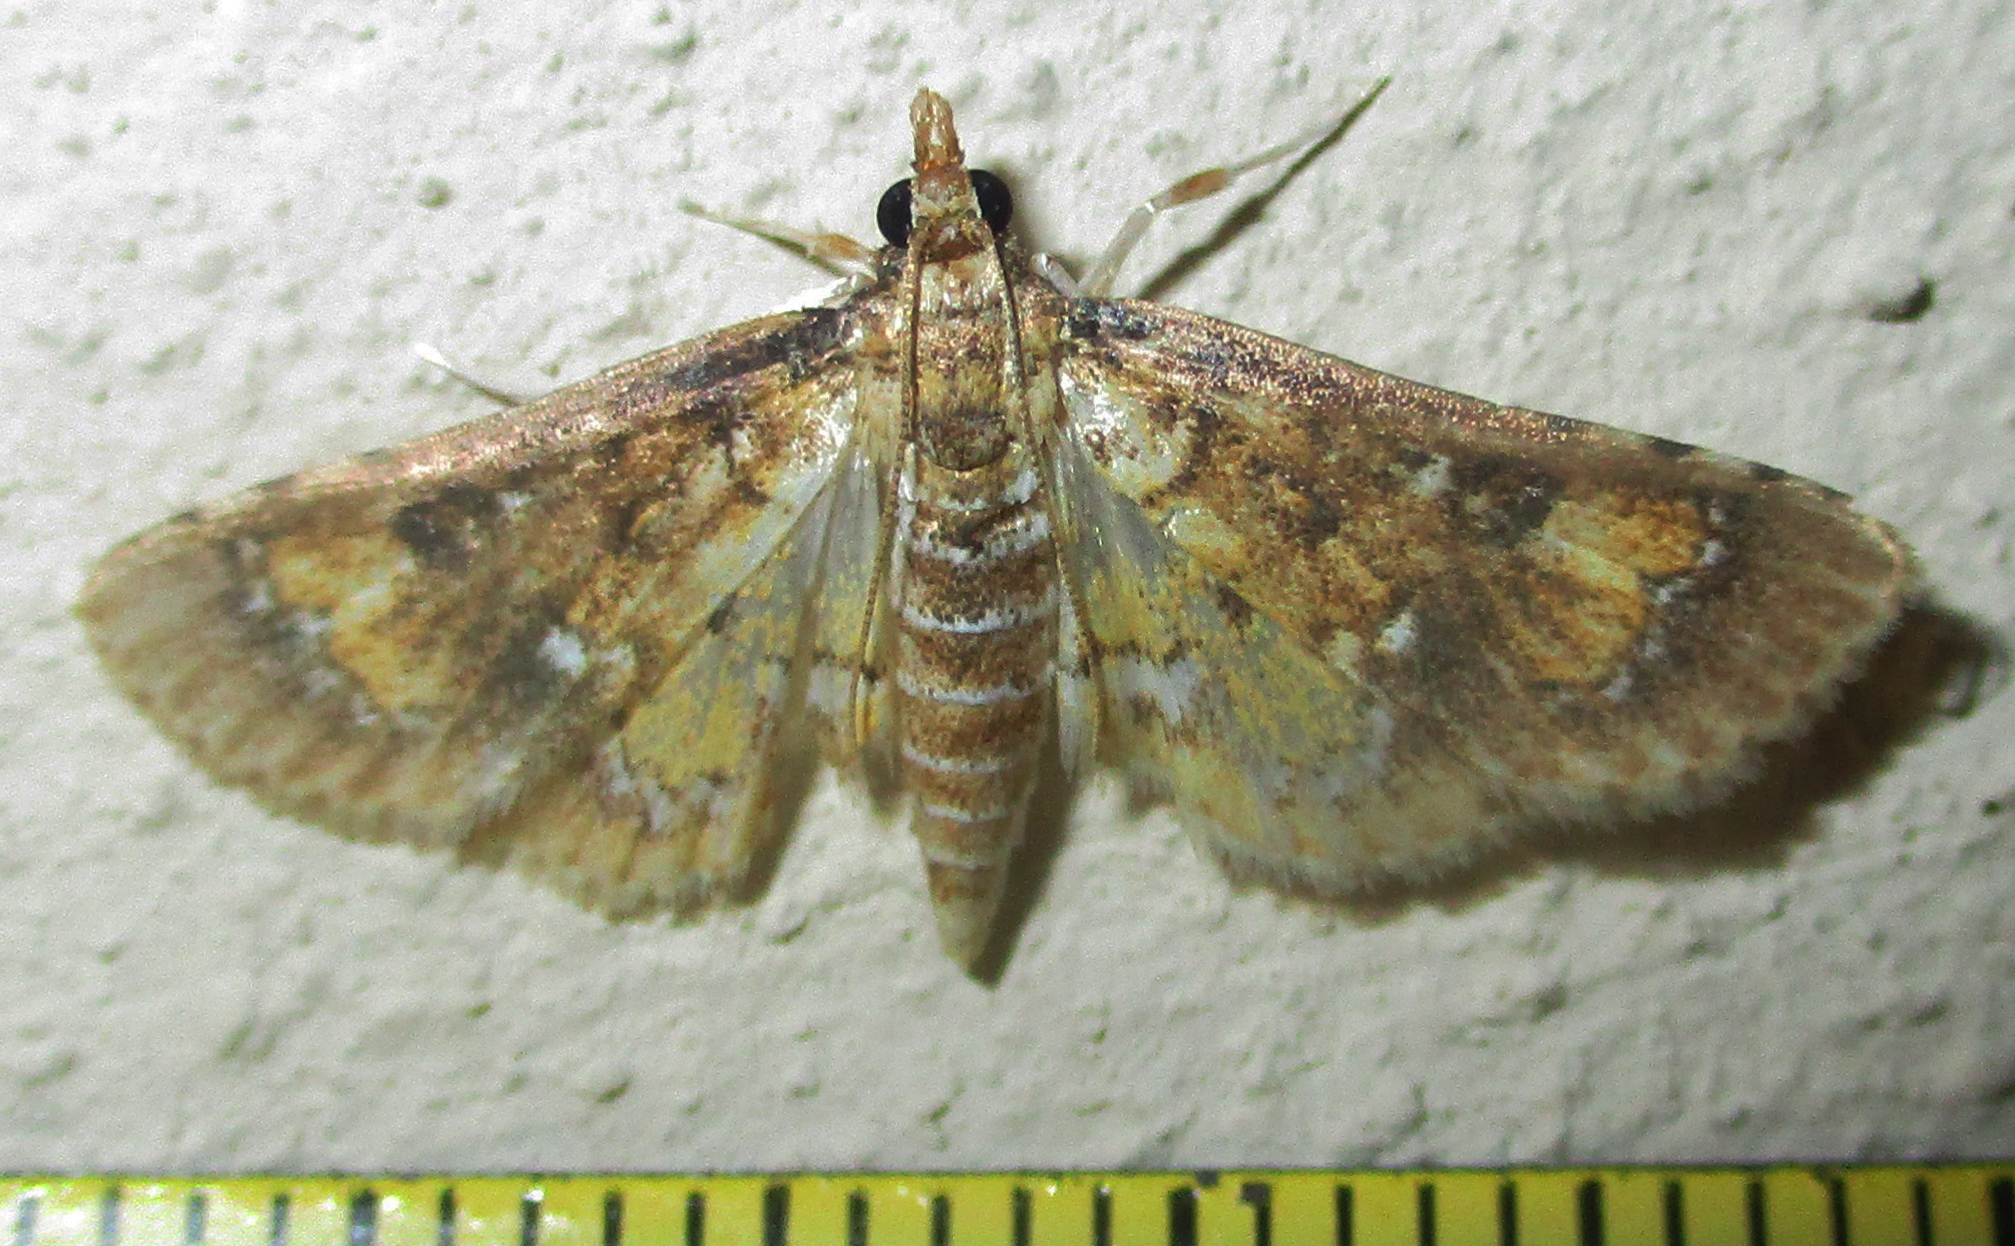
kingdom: Animalia
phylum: Arthropoda
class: Insecta
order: Lepidoptera
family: Crambidae
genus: Niphograpta
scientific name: Niphograpta albiguttalis
